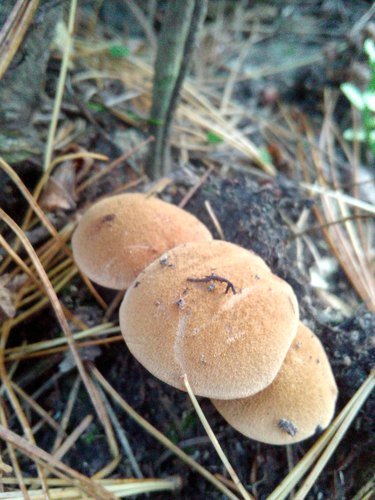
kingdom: Fungi
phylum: Basidiomycota
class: Agaricomycetes
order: Boletales
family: Boletaceae
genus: Chalciporus
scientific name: Chalciporus piperatus
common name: Peppery bolete
